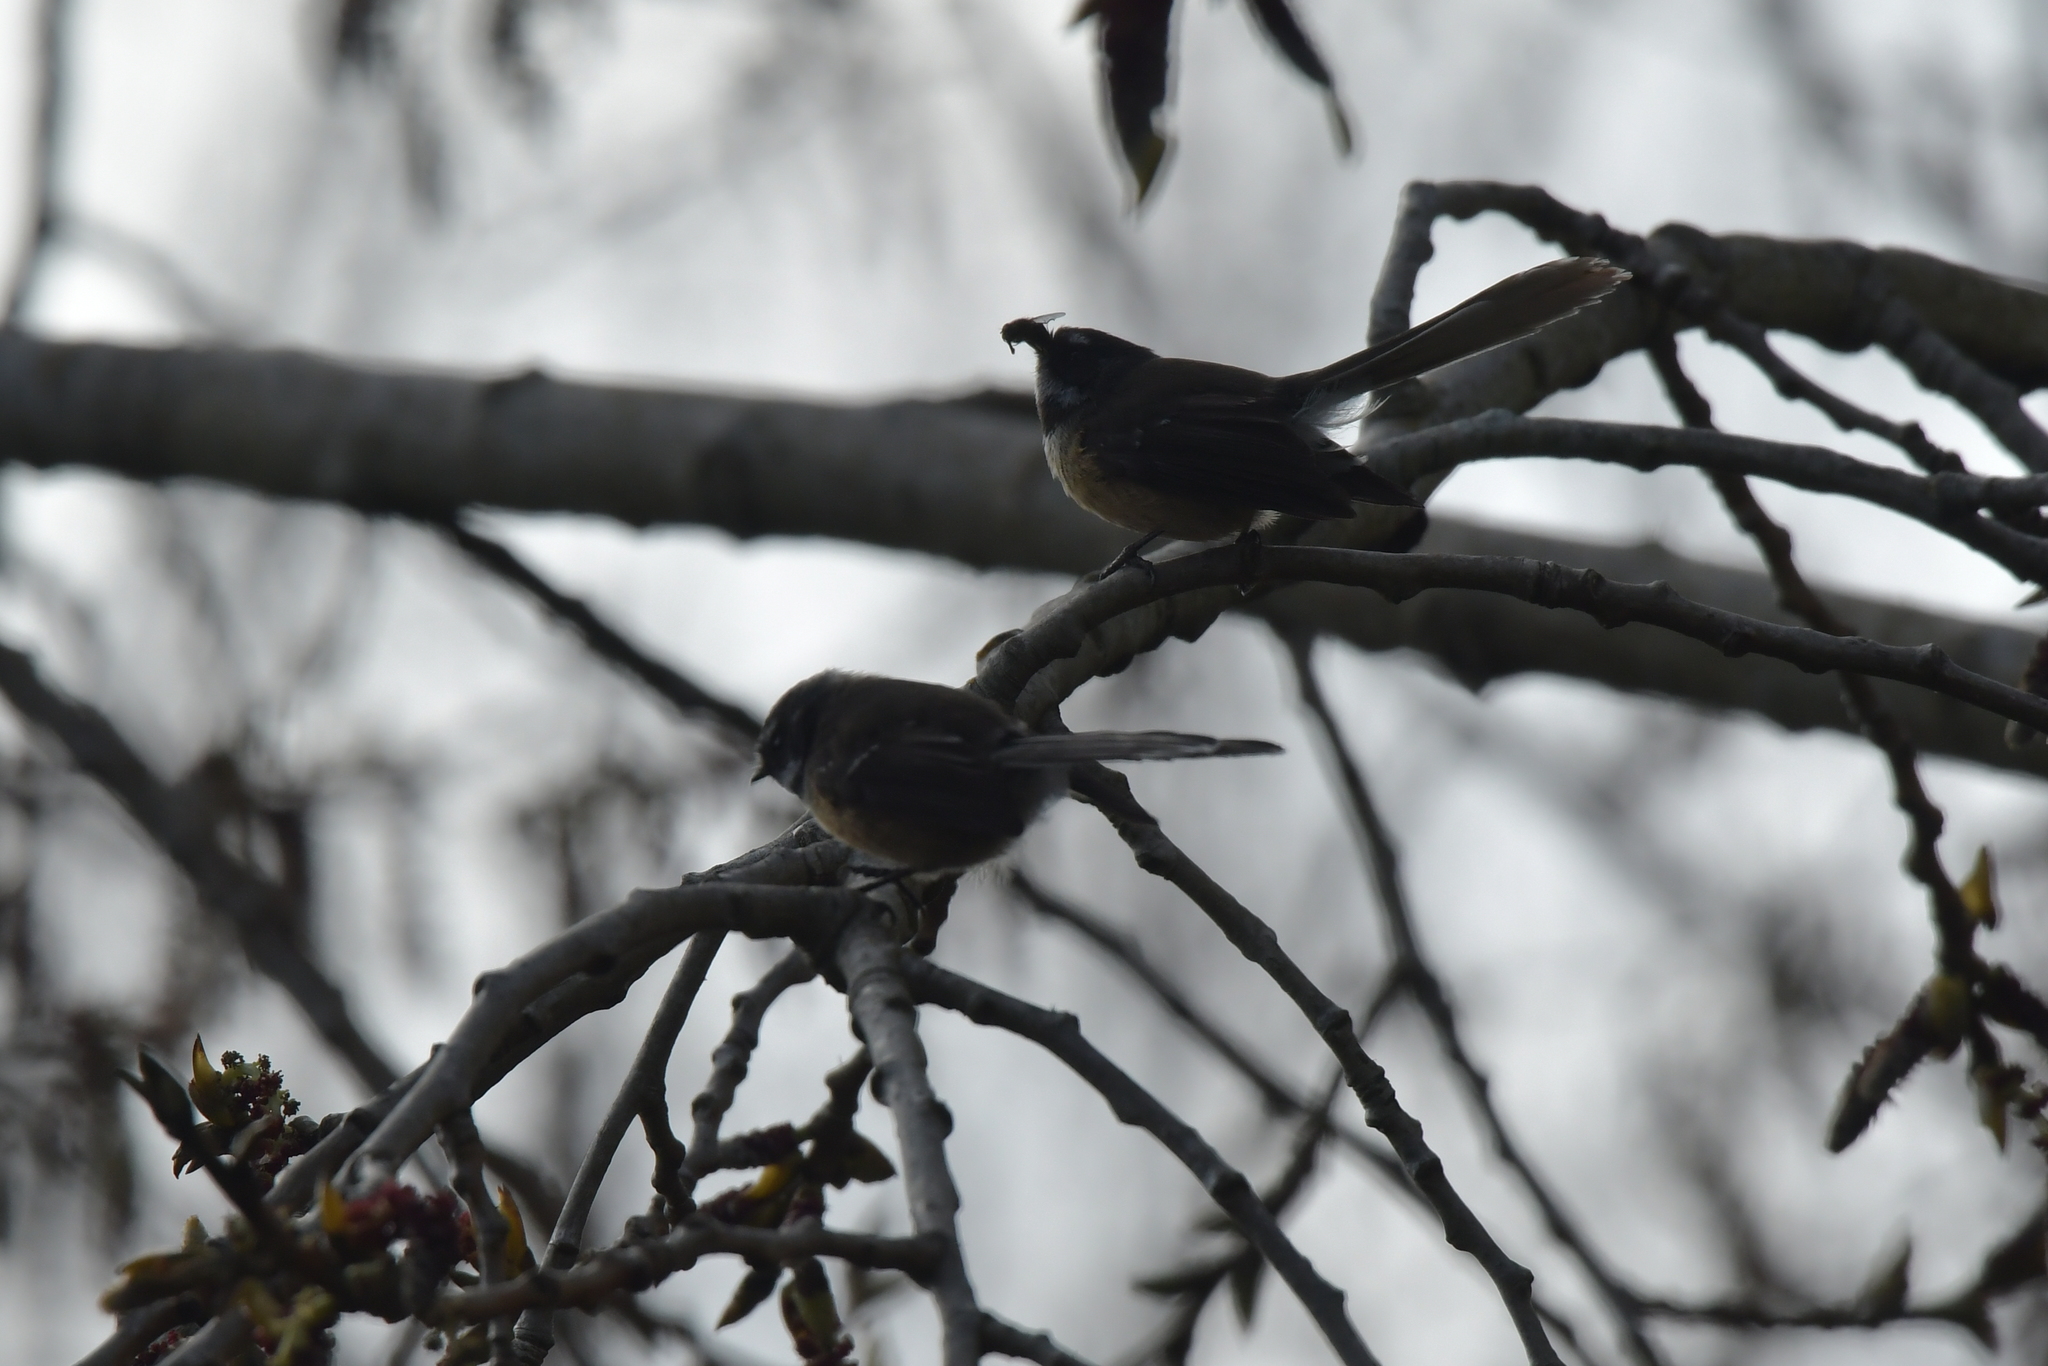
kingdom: Animalia
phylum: Chordata
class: Aves
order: Passeriformes
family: Rhipiduridae
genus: Rhipidura
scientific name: Rhipidura fuliginosa
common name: New zealand fantail
